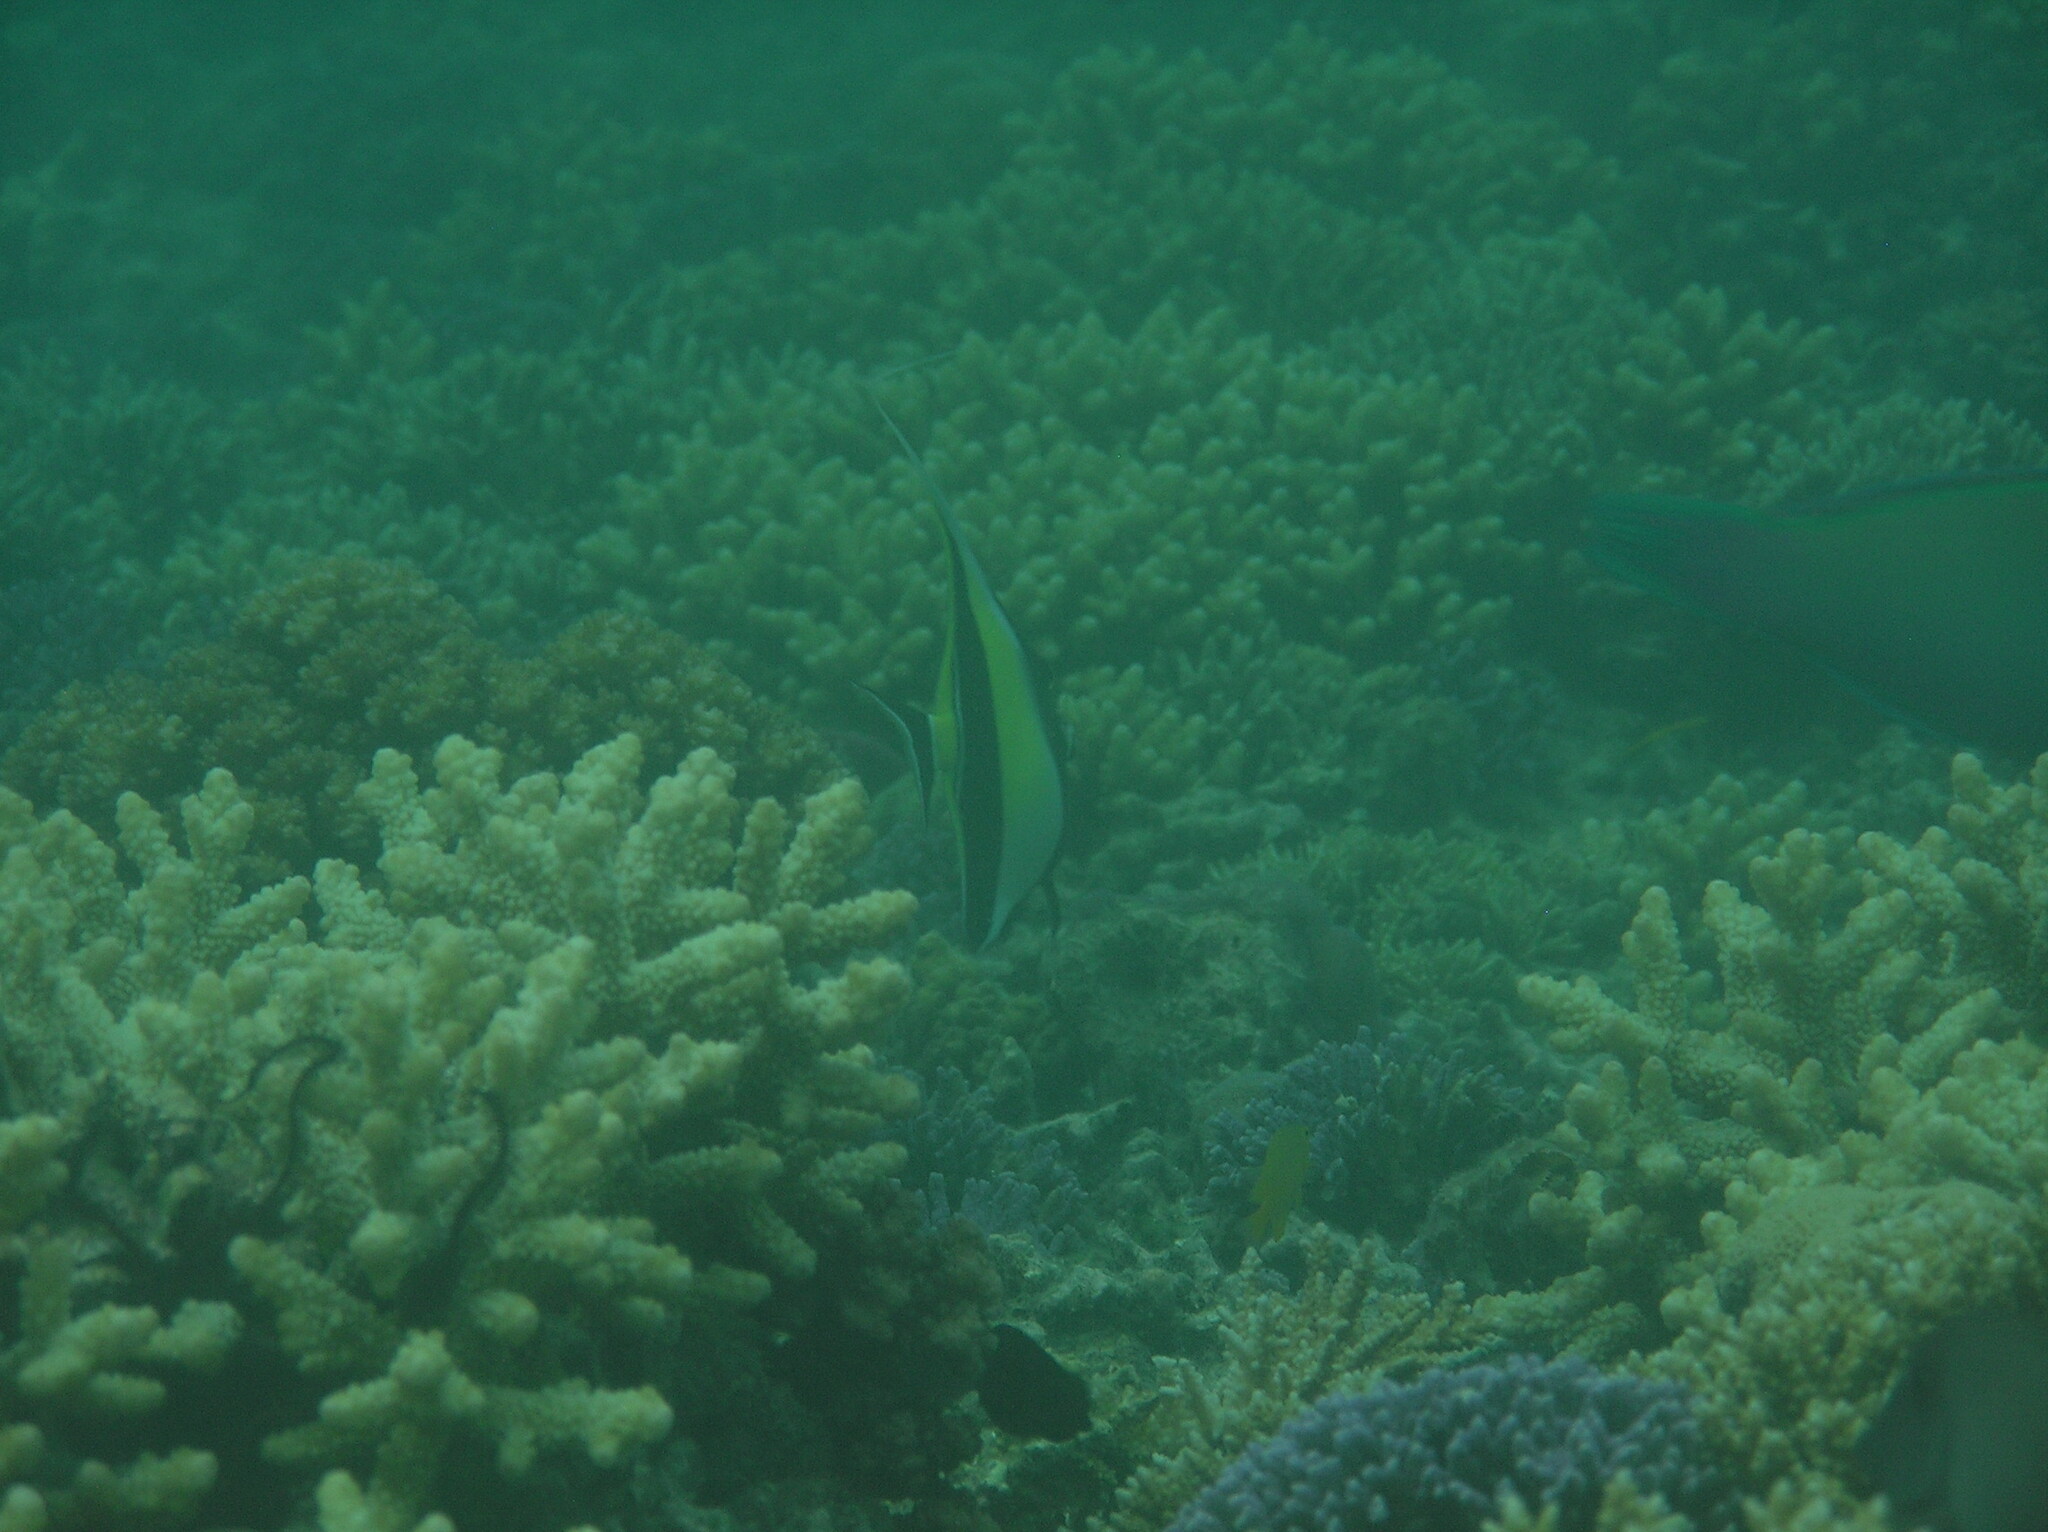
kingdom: Animalia
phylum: Chordata
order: Perciformes
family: Zanclidae
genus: Zanclus
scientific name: Zanclus cornutus
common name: Moorish idol
